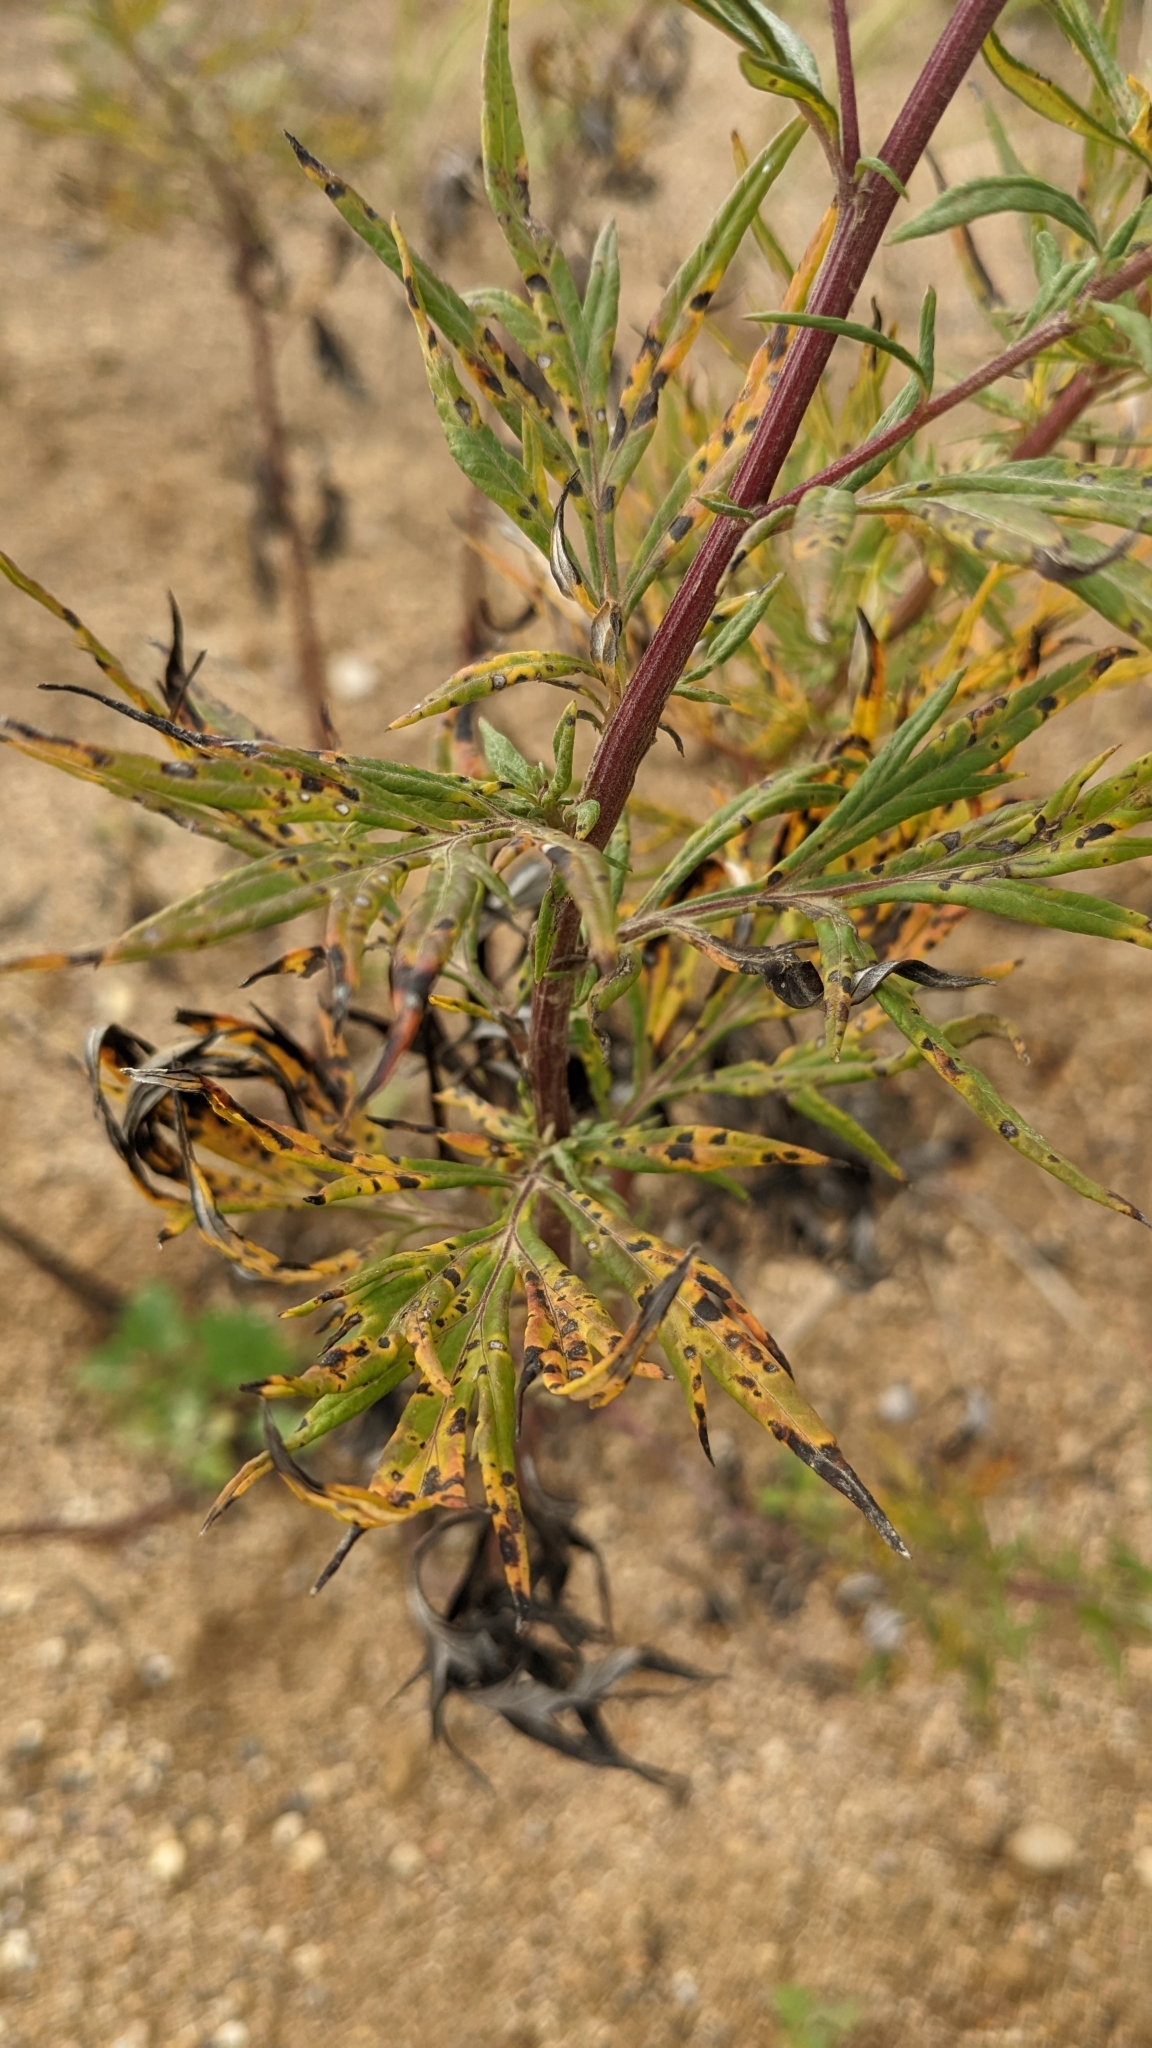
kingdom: Plantae
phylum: Tracheophyta
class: Magnoliopsida
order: Asterales
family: Asteraceae
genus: Artemisia
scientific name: Artemisia vulgaris
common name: Mugwort
